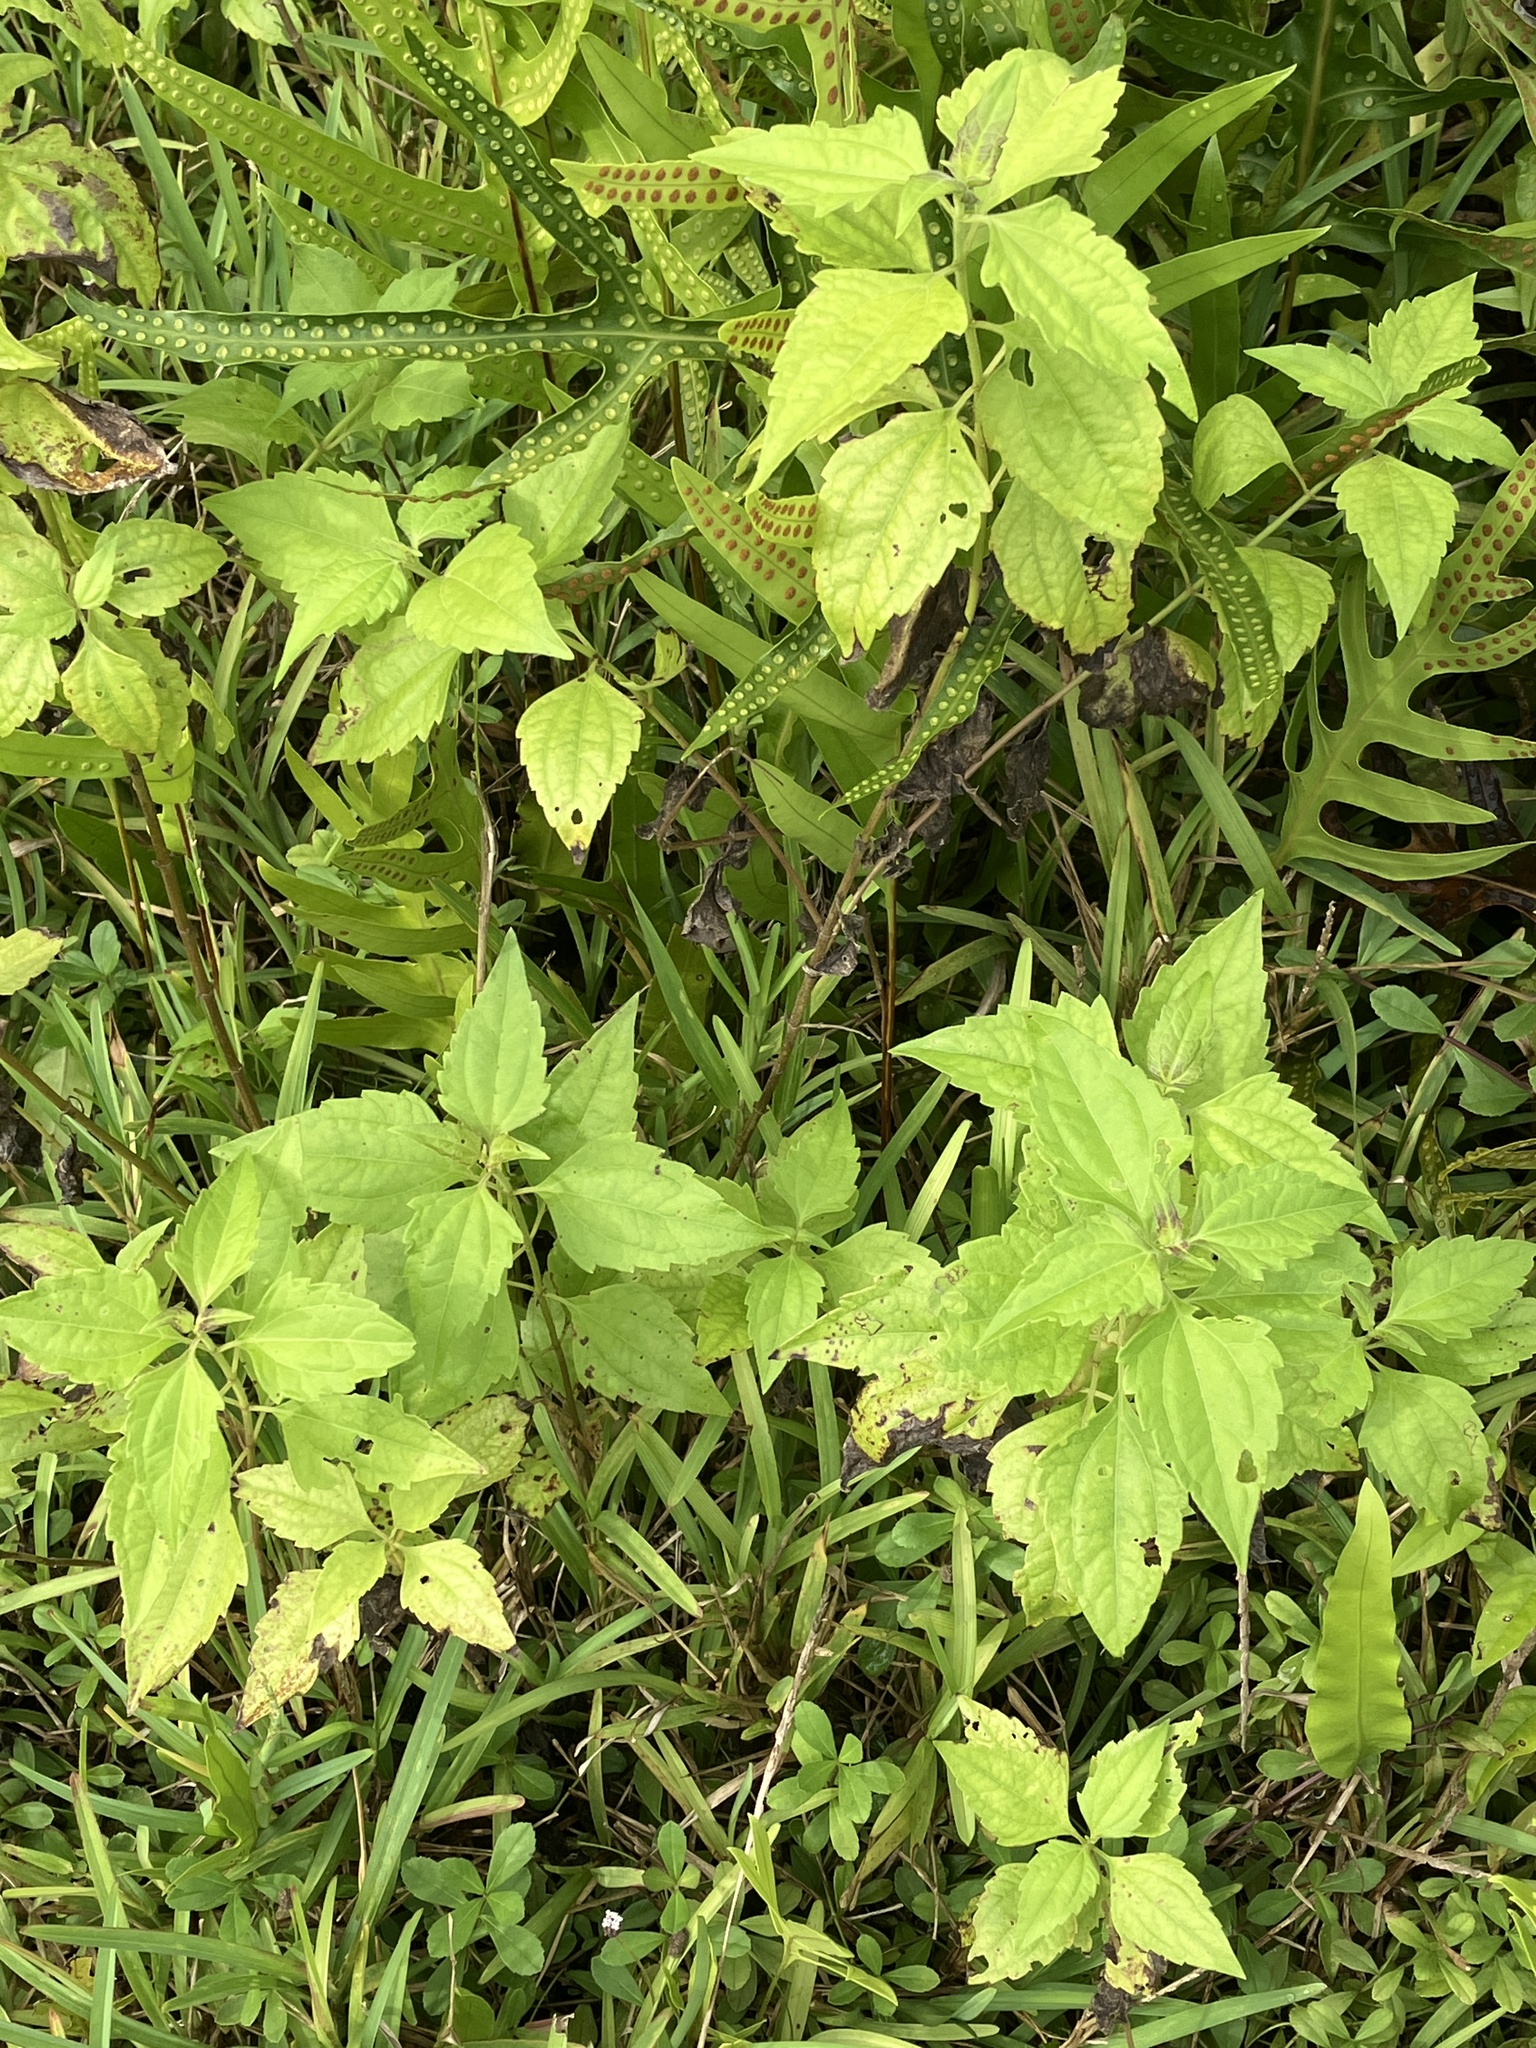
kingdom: Plantae
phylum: Tracheophyta
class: Magnoliopsida
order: Asterales
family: Asteraceae
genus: Chromolaena
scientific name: Chromolaena odorata
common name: Siamweed
